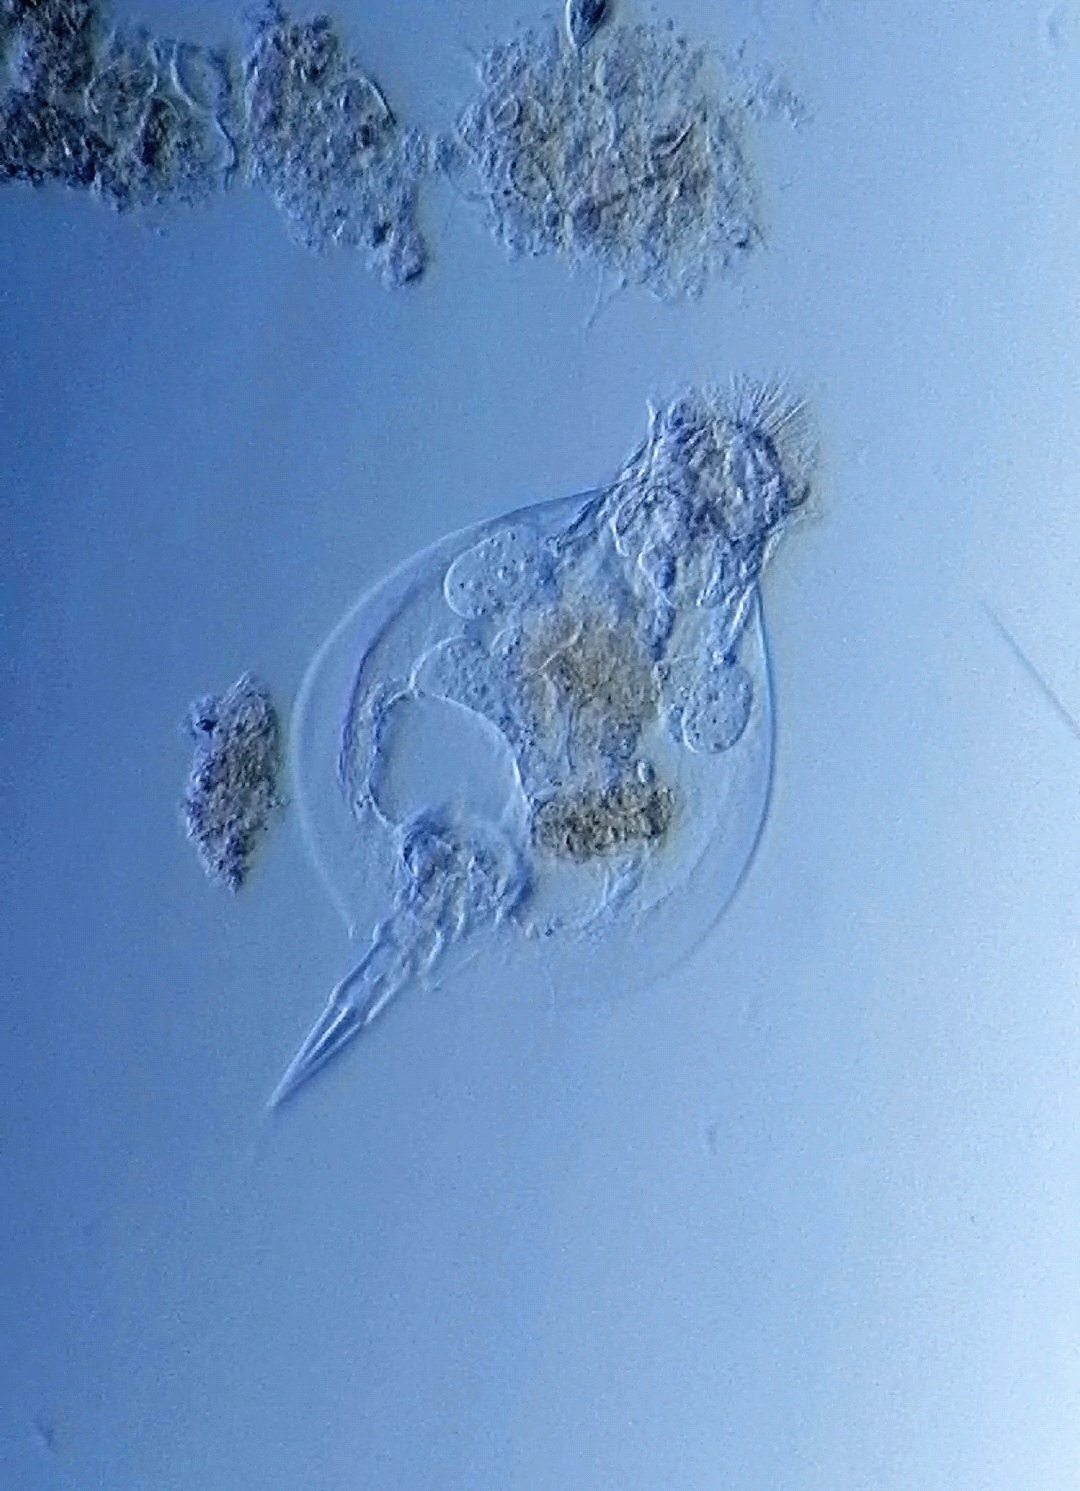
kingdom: Animalia
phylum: Rotifera
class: Eurotatoria
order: Ploima
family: Lepadellidae
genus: Lepadella
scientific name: Lepadella ovalis
